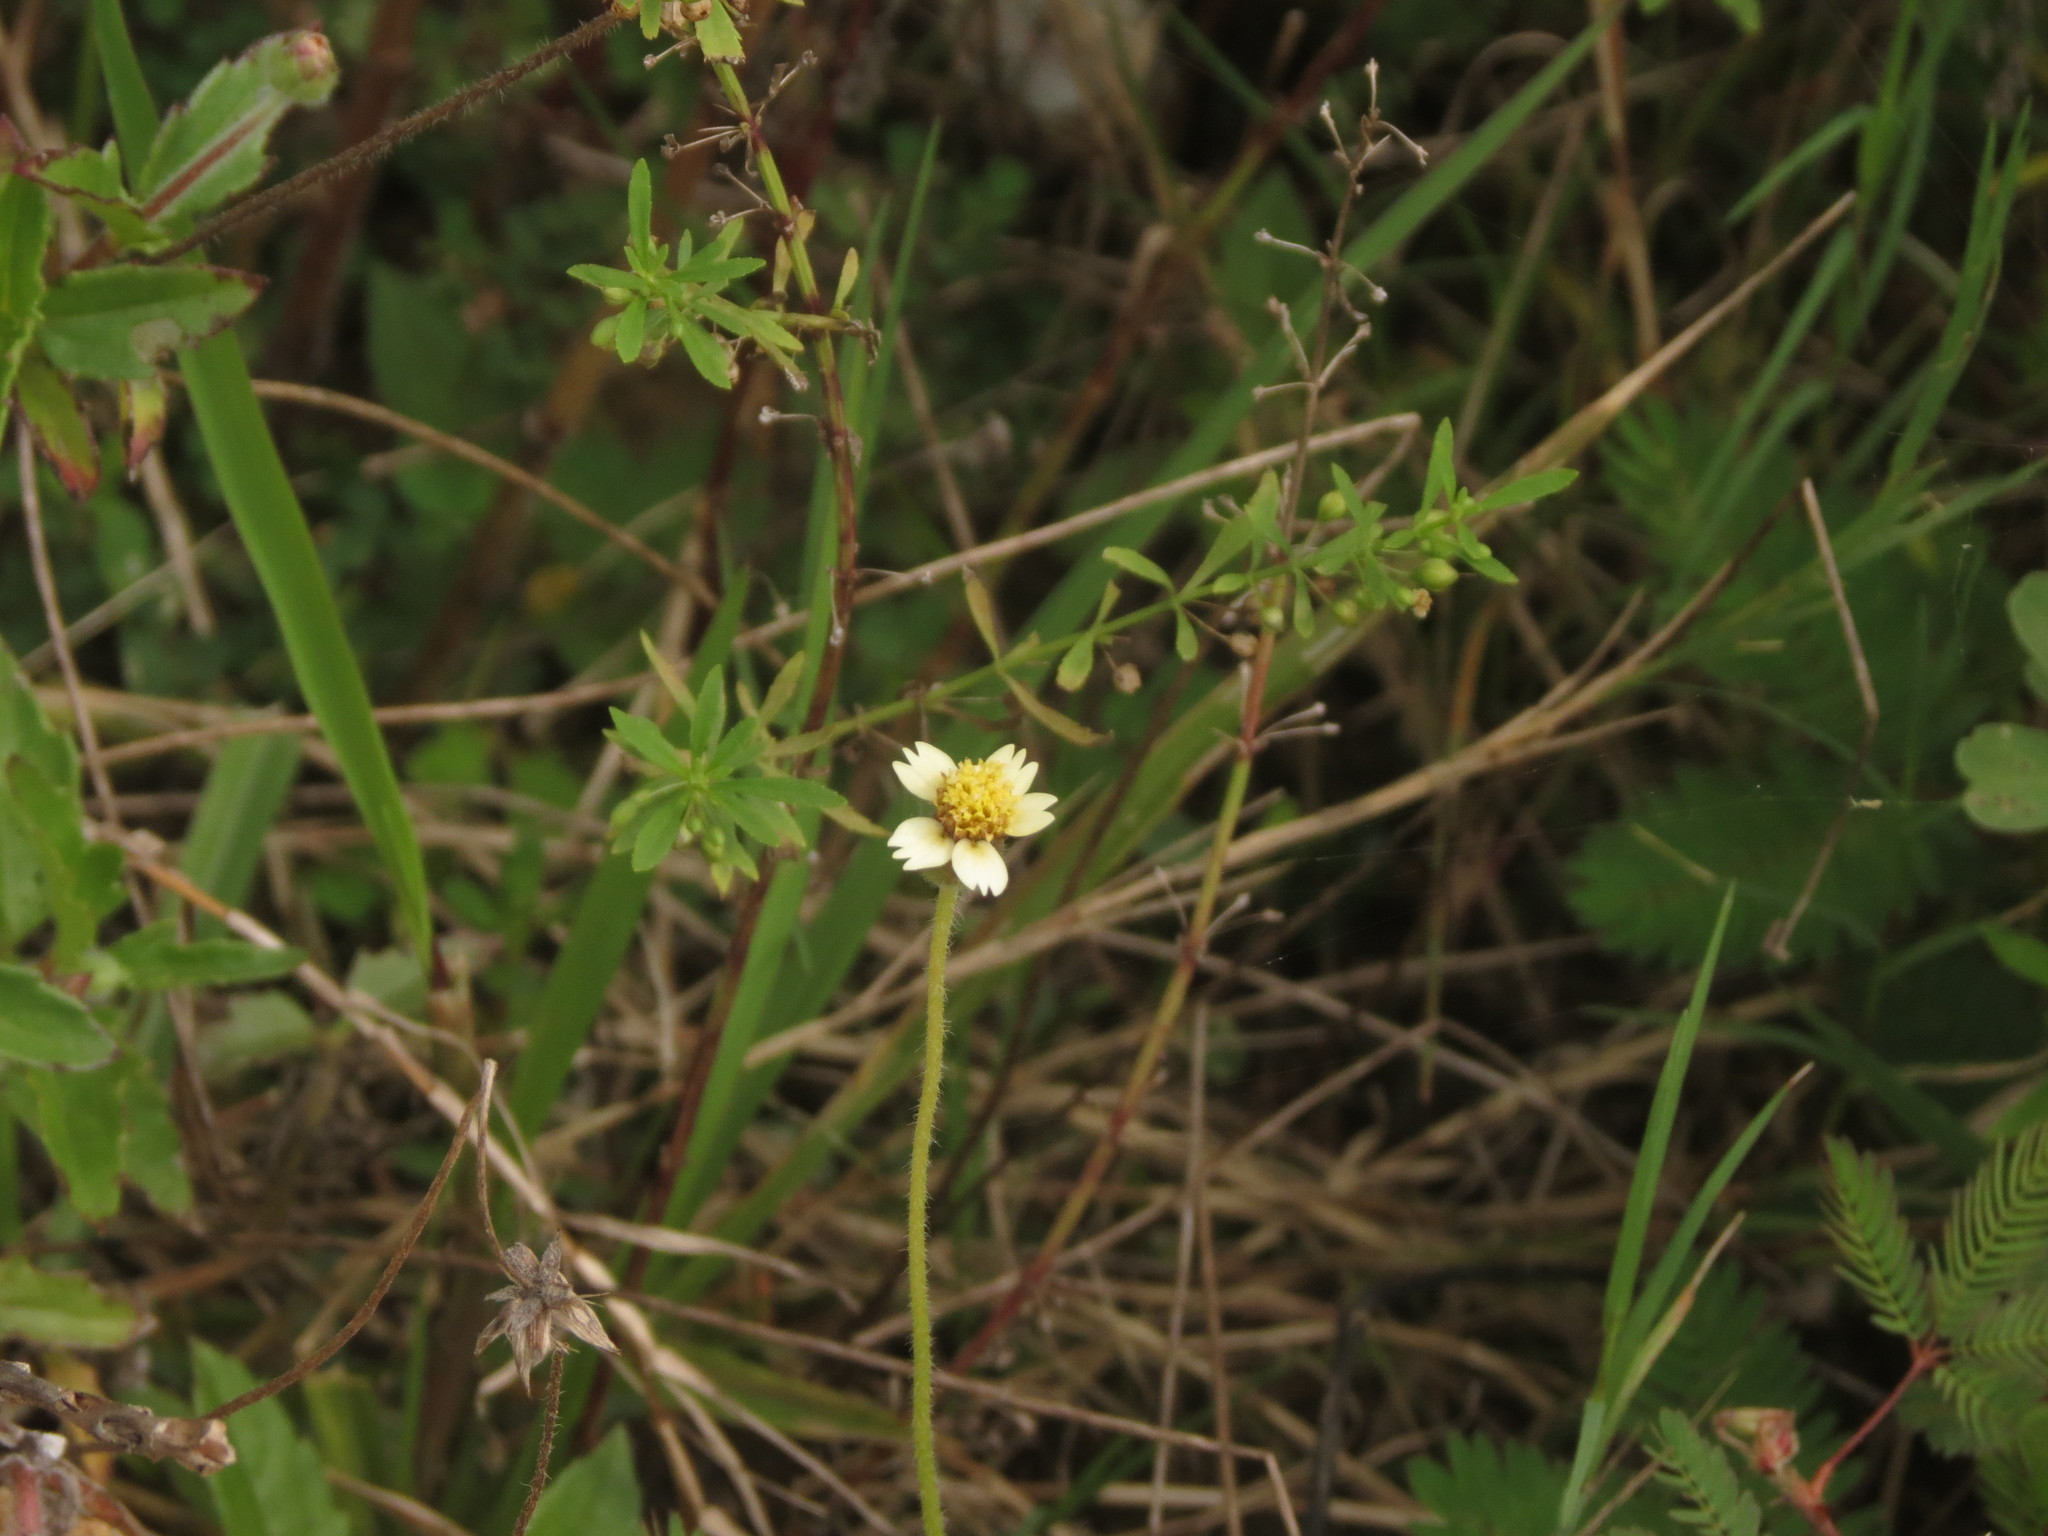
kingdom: Plantae
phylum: Tracheophyta
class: Magnoliopsida
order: Asterales
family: Asteraceae
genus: Tridax
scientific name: Tridax procumbens
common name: Coatbuttons
